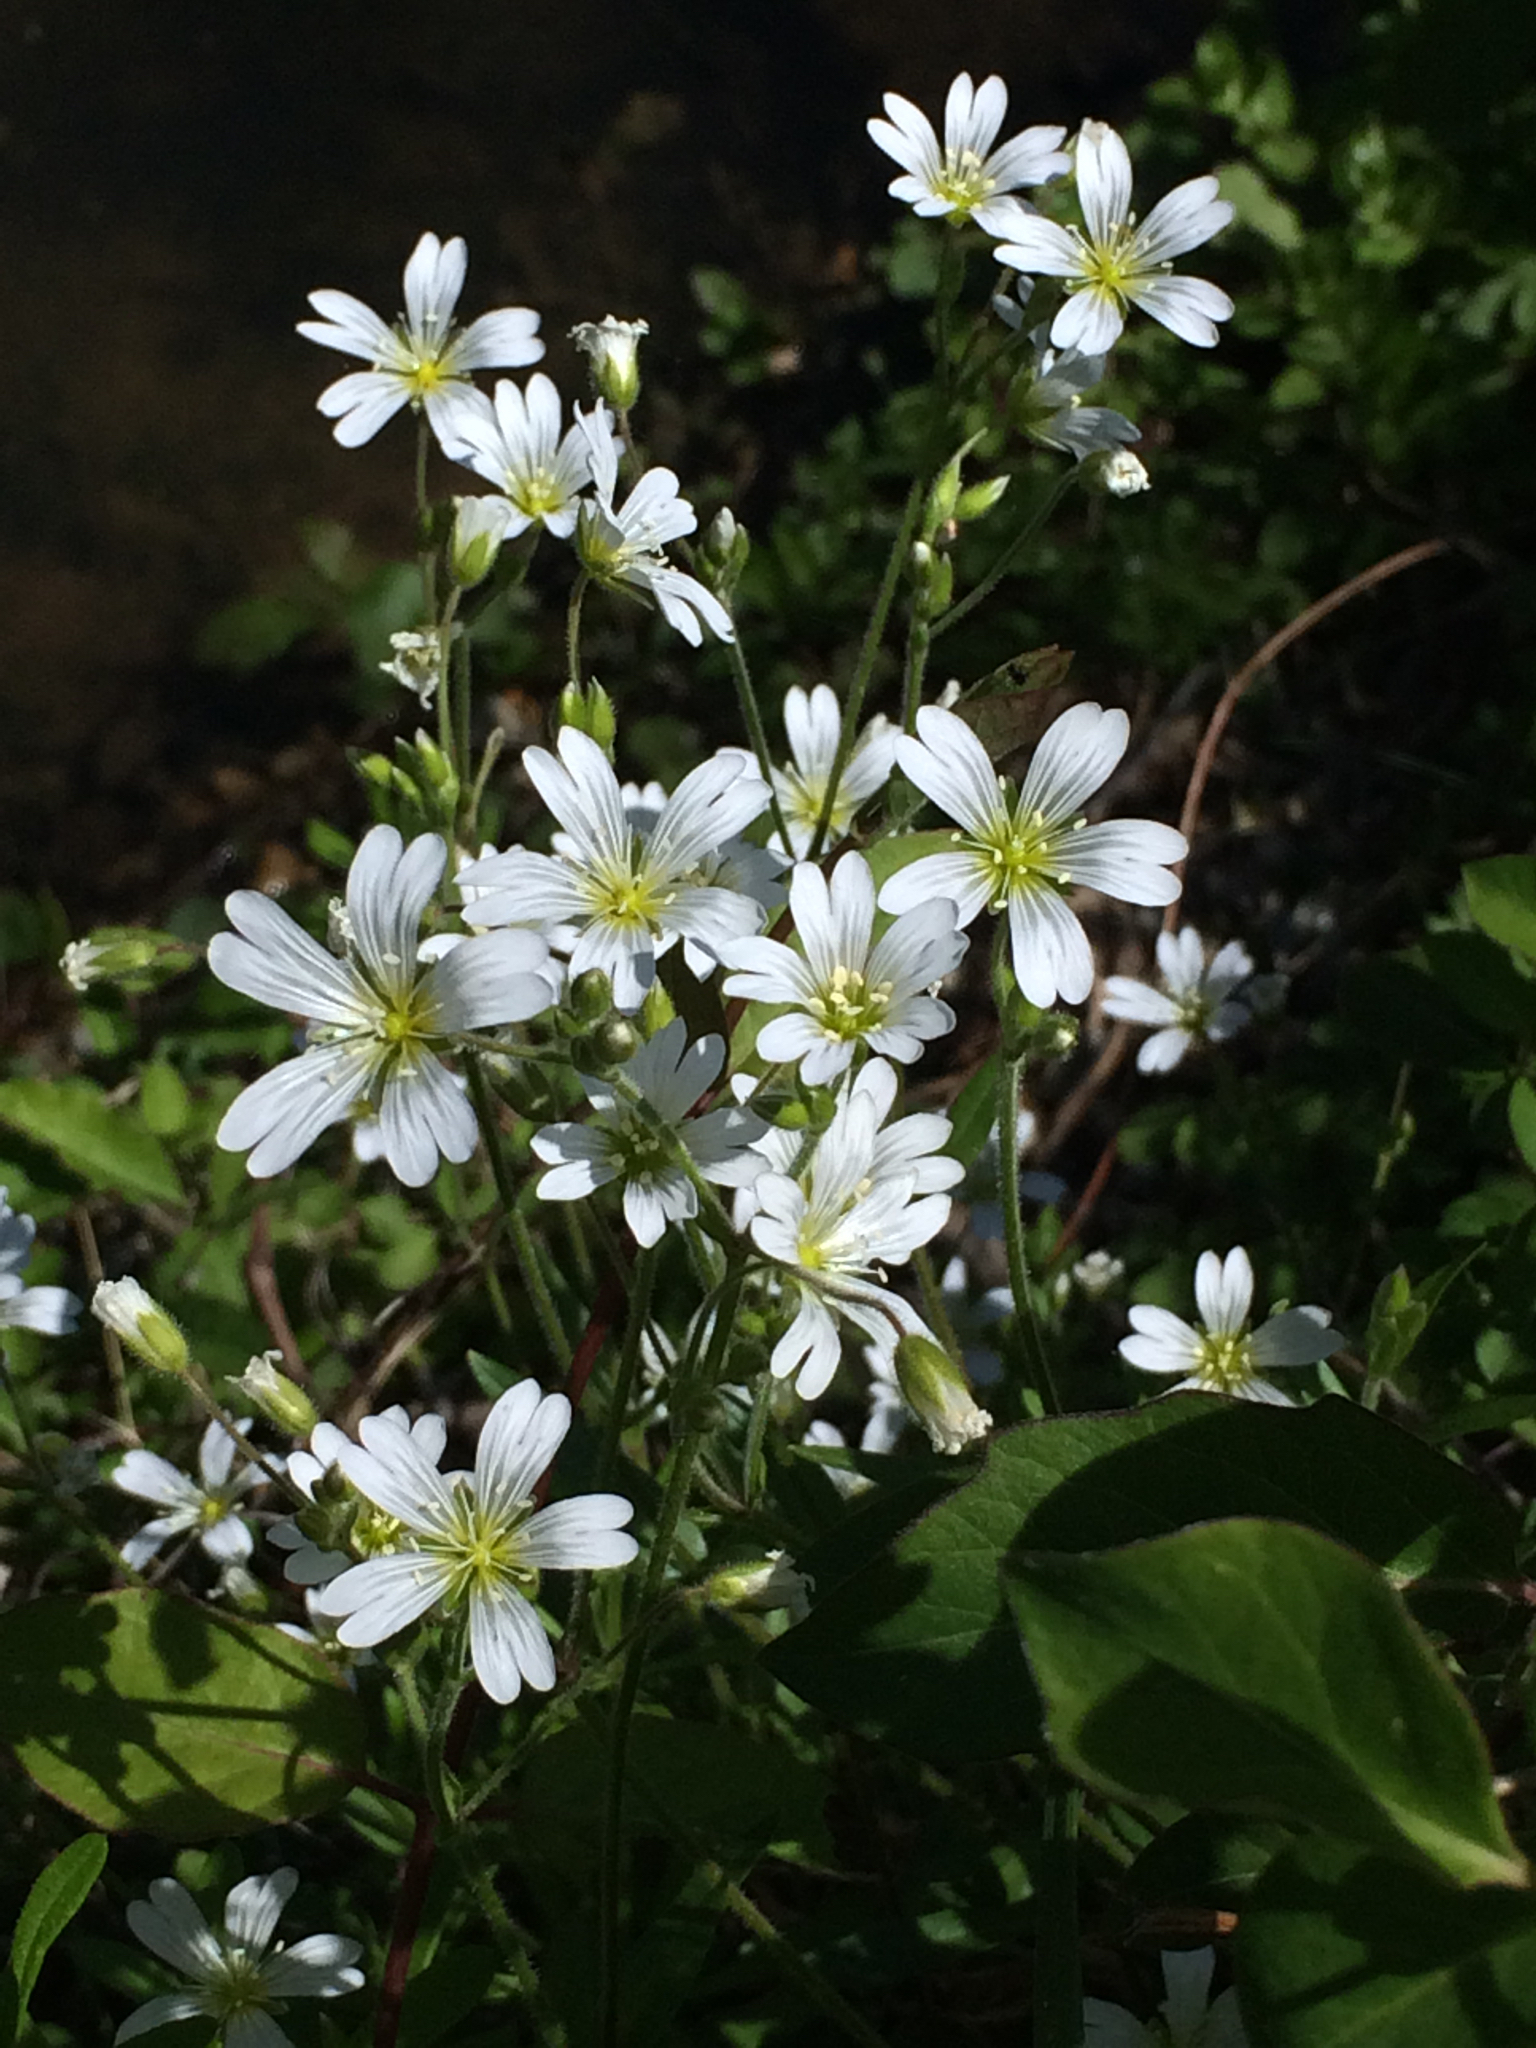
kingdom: Plantae
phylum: Tracheophyta
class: Magnoliopsida
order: Caryophyllales
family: Caryophyllaceae
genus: Cerastium
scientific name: Cerastium arvense
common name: Field mouse-ear
